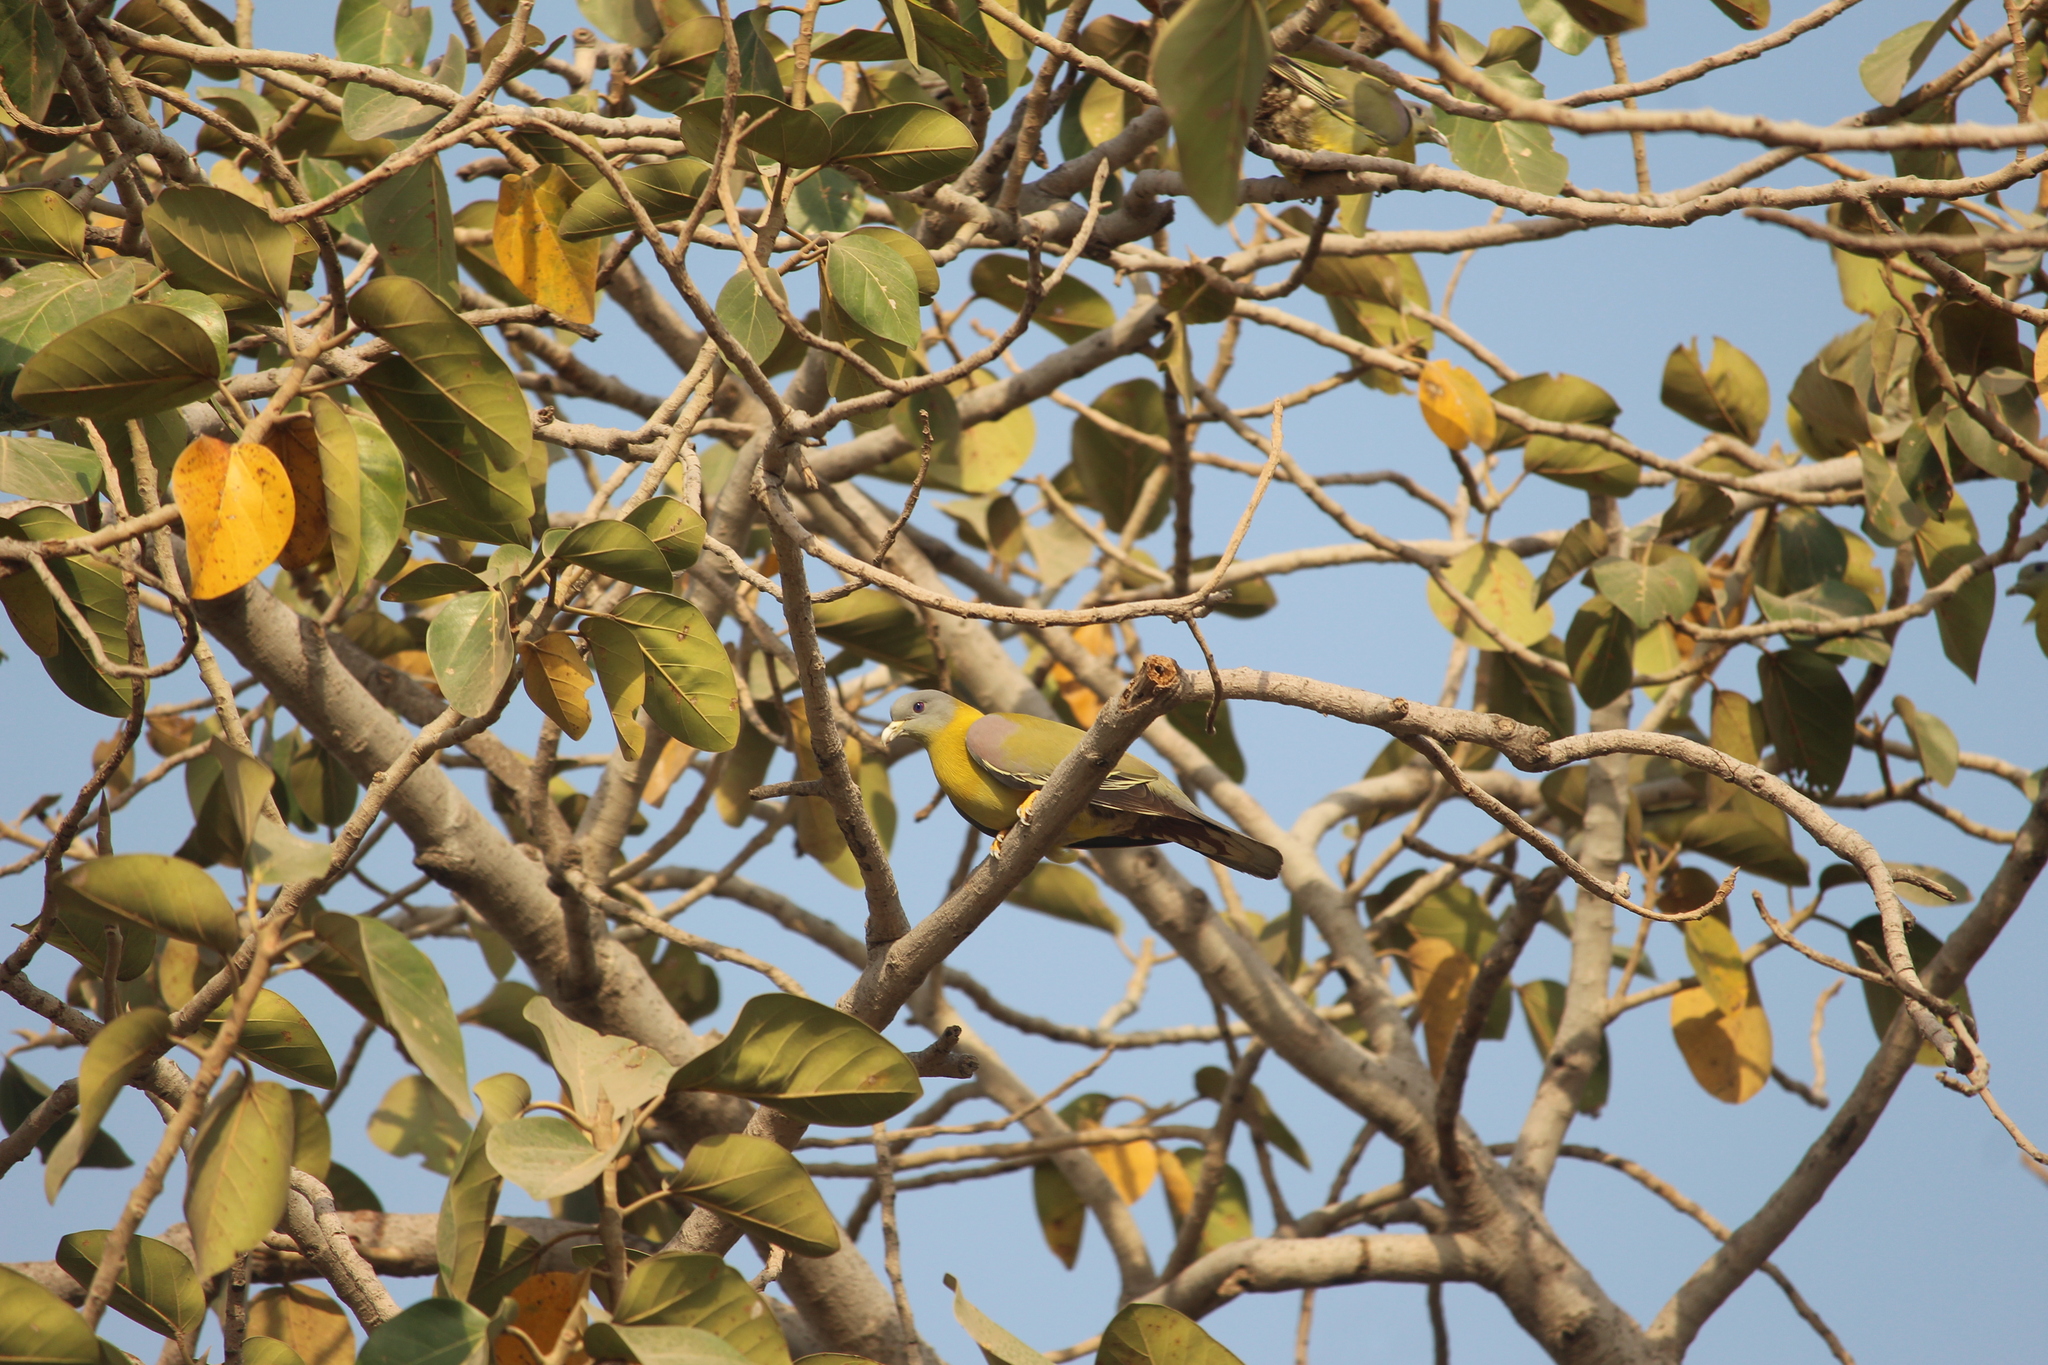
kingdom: Animalia
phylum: Chordata
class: Aves
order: Columbiformes
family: Columbidae
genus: Treron
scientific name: Treron phoenicopterus
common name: Yellow-footed green pigeon
